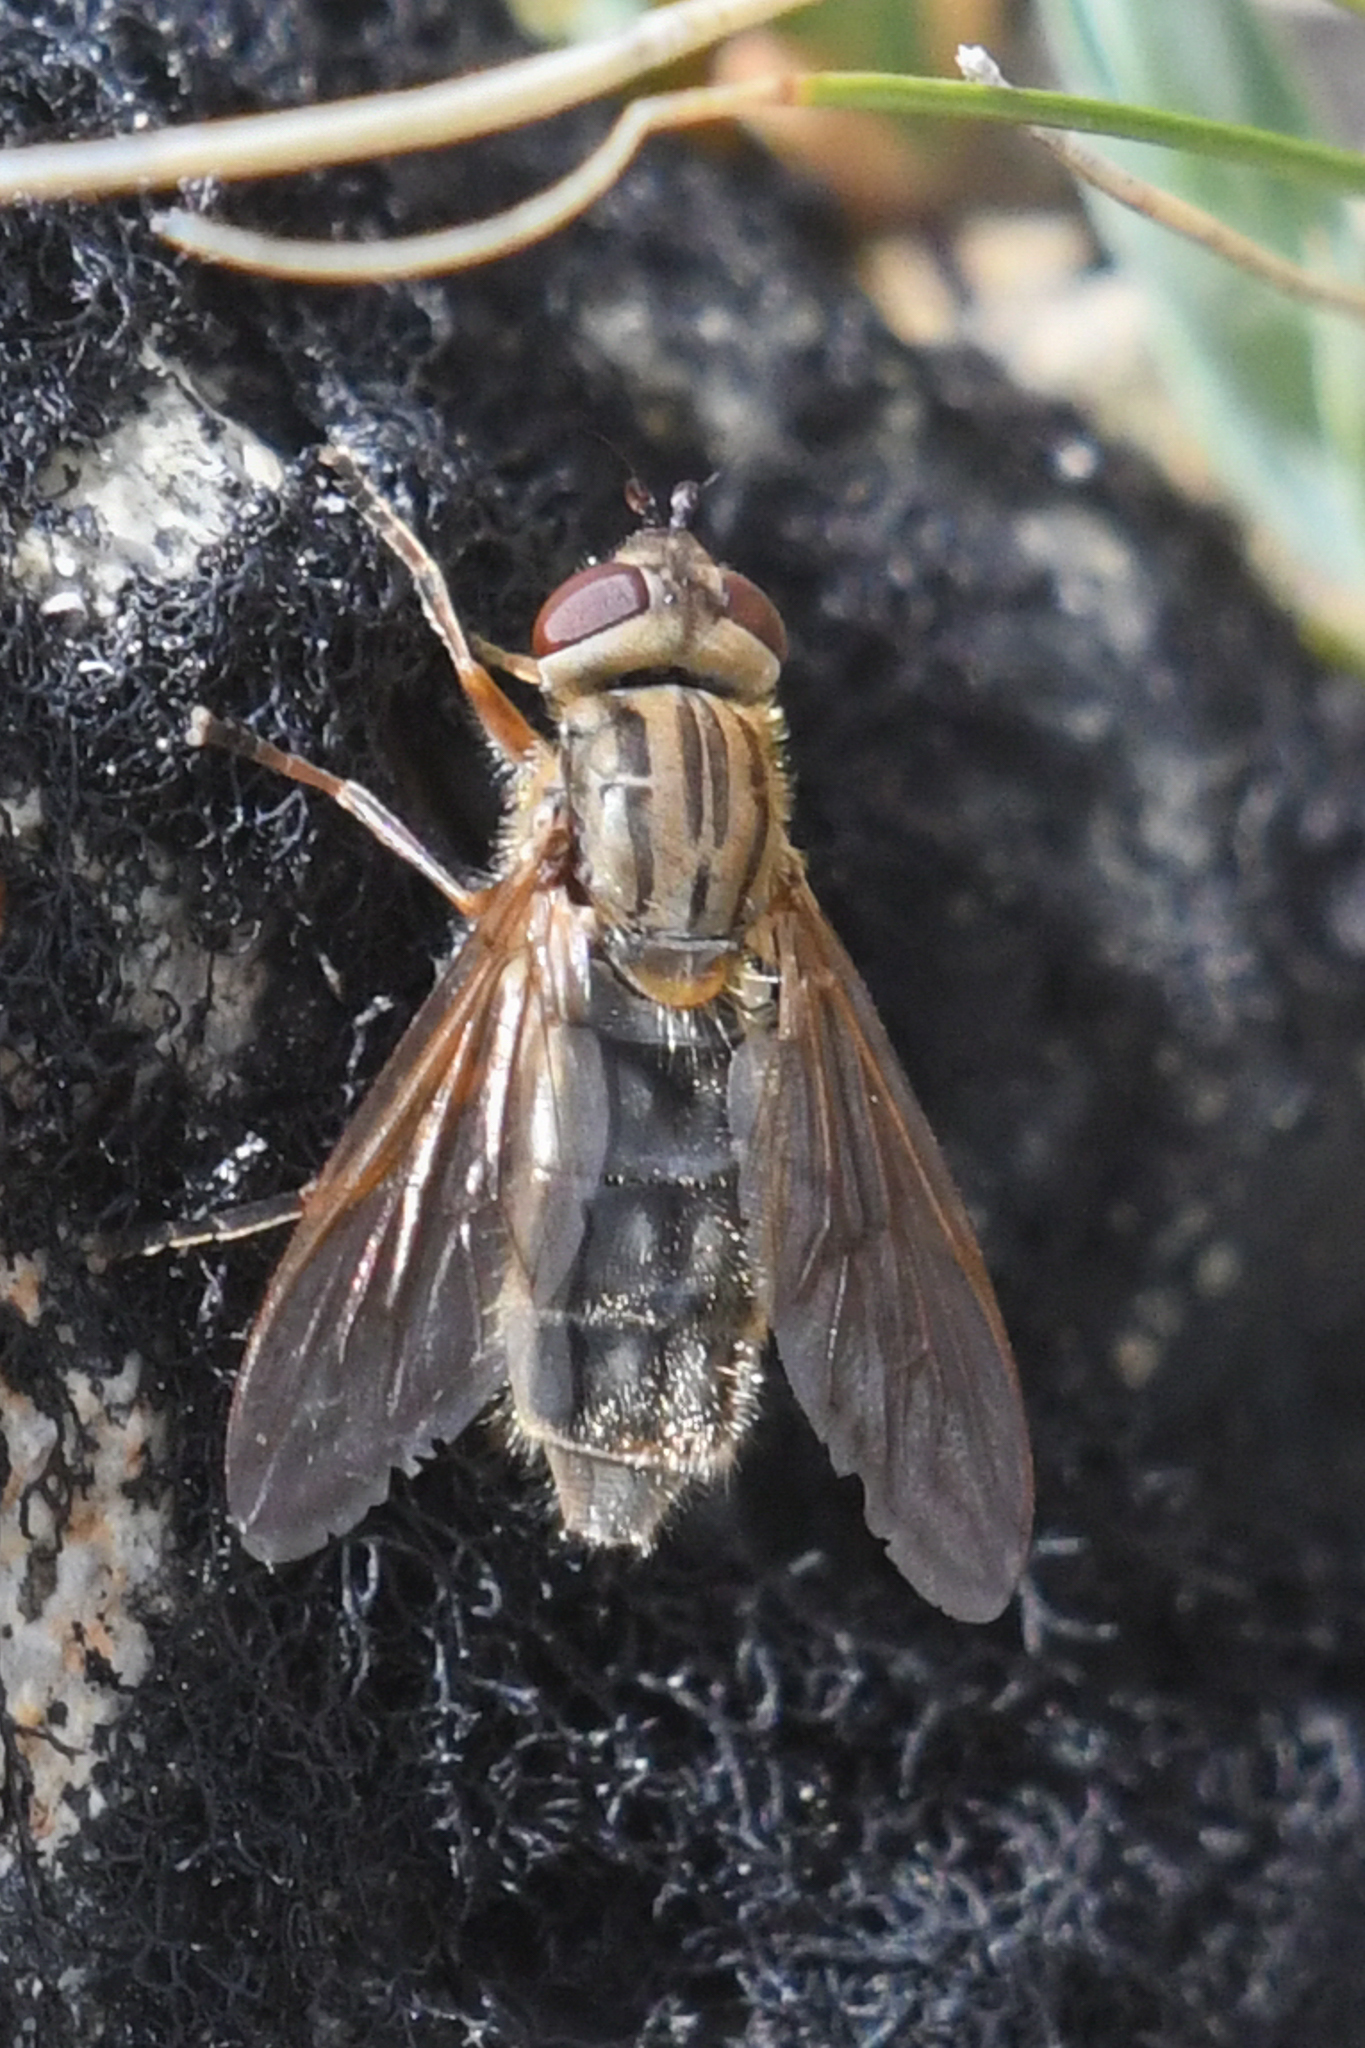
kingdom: Animalia
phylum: Arthropoda
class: Insecta
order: Diptera
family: Syrphidae
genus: Parhelophilus
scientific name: Parhelophilus brooksi
